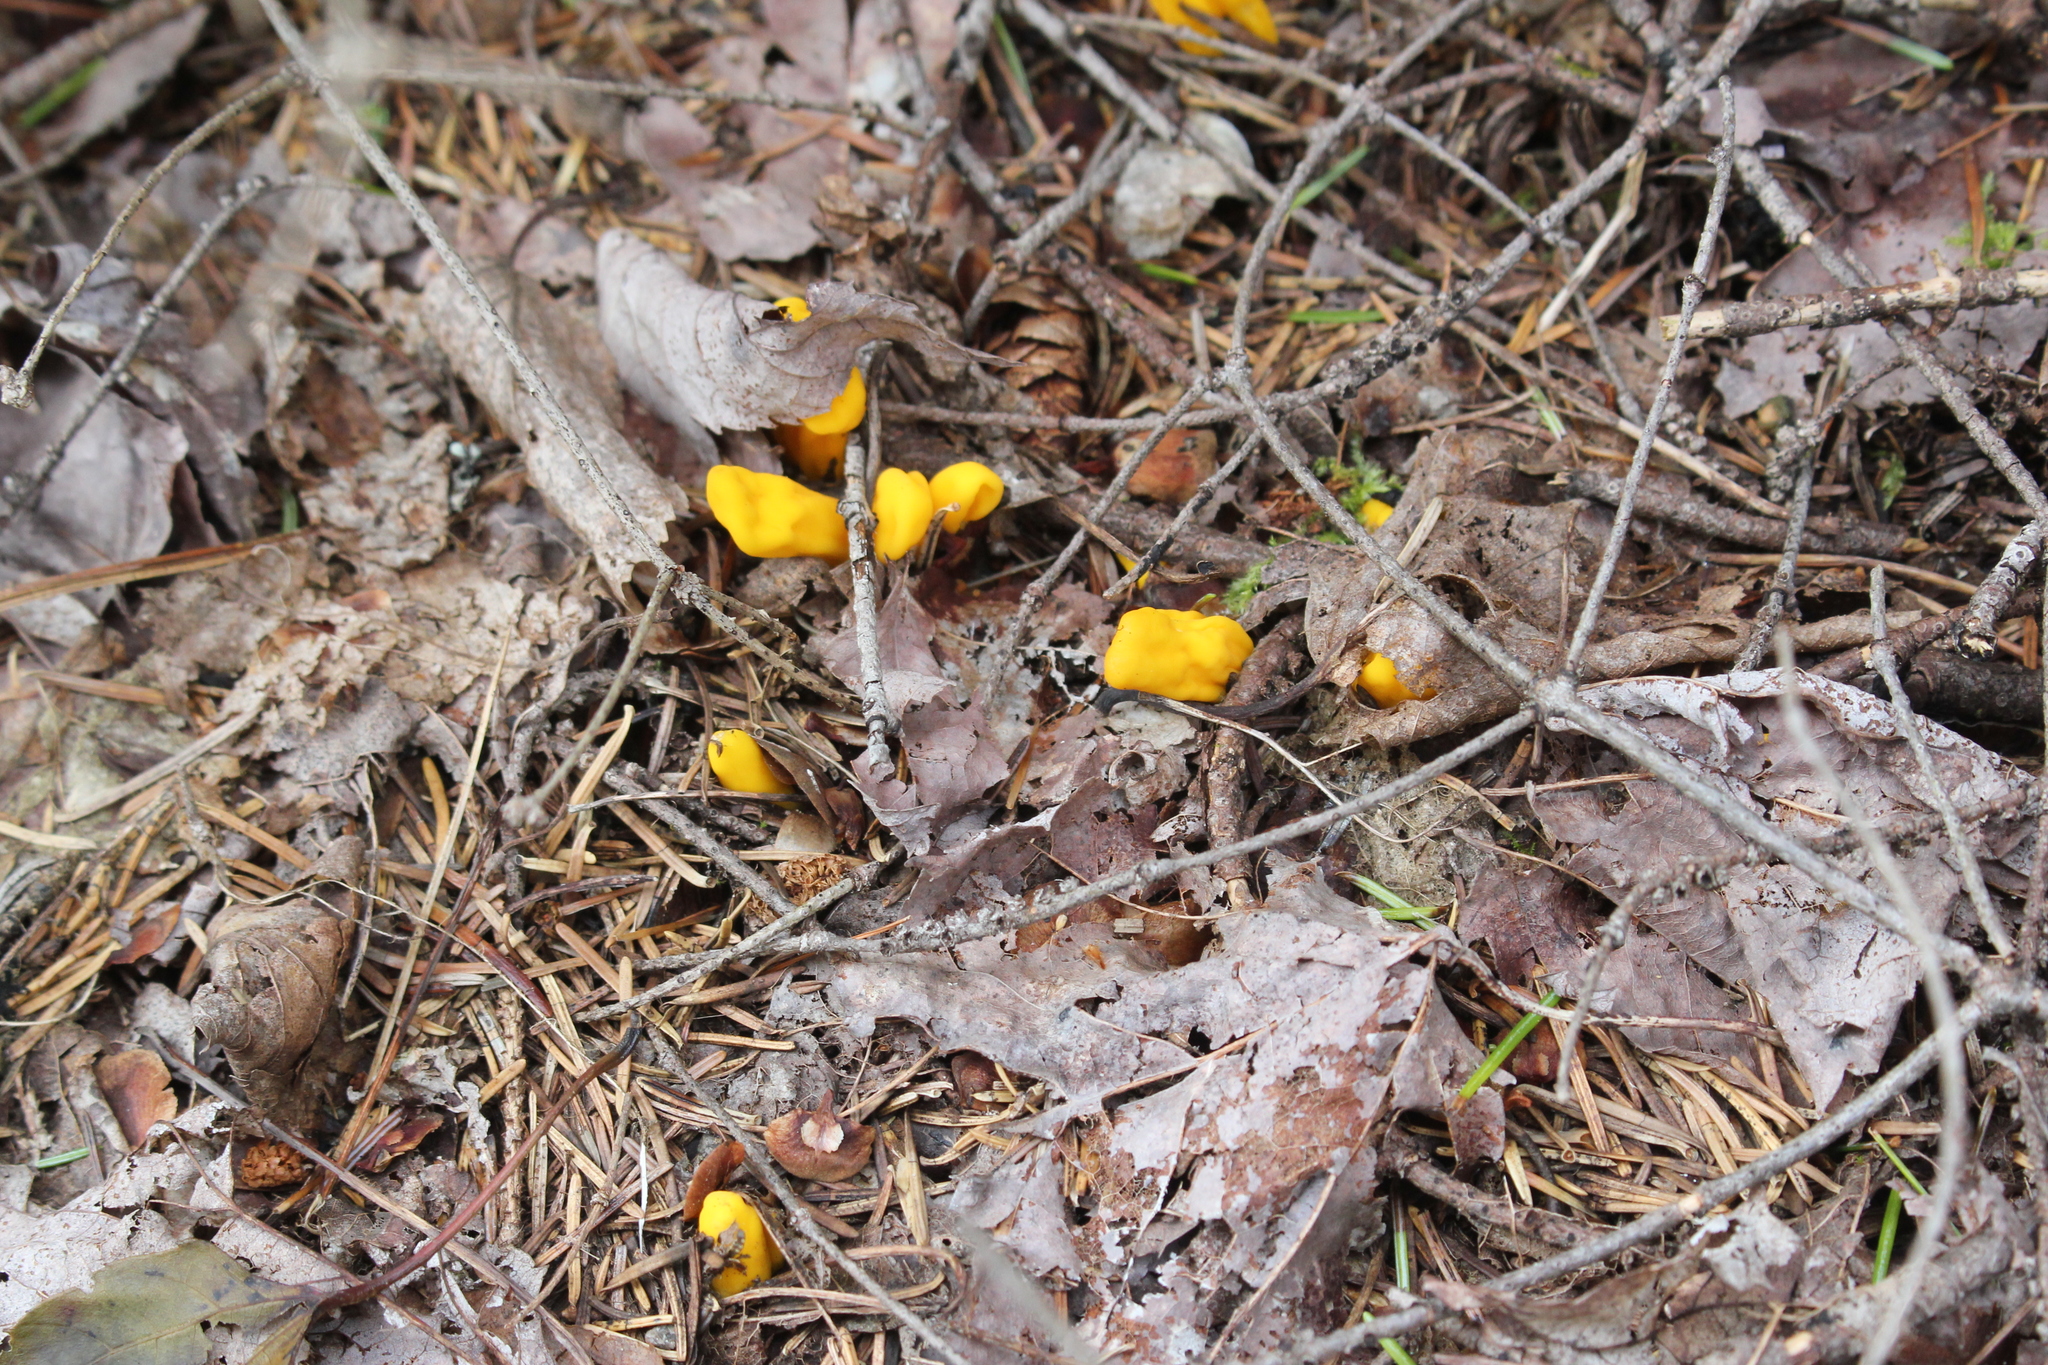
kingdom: Fungi
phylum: Ascomycota
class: Neolectomycetes
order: Neolectales
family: Neolectaceae
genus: Neolecta
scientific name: Neolecta irregularis
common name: Irregular earth tongue
